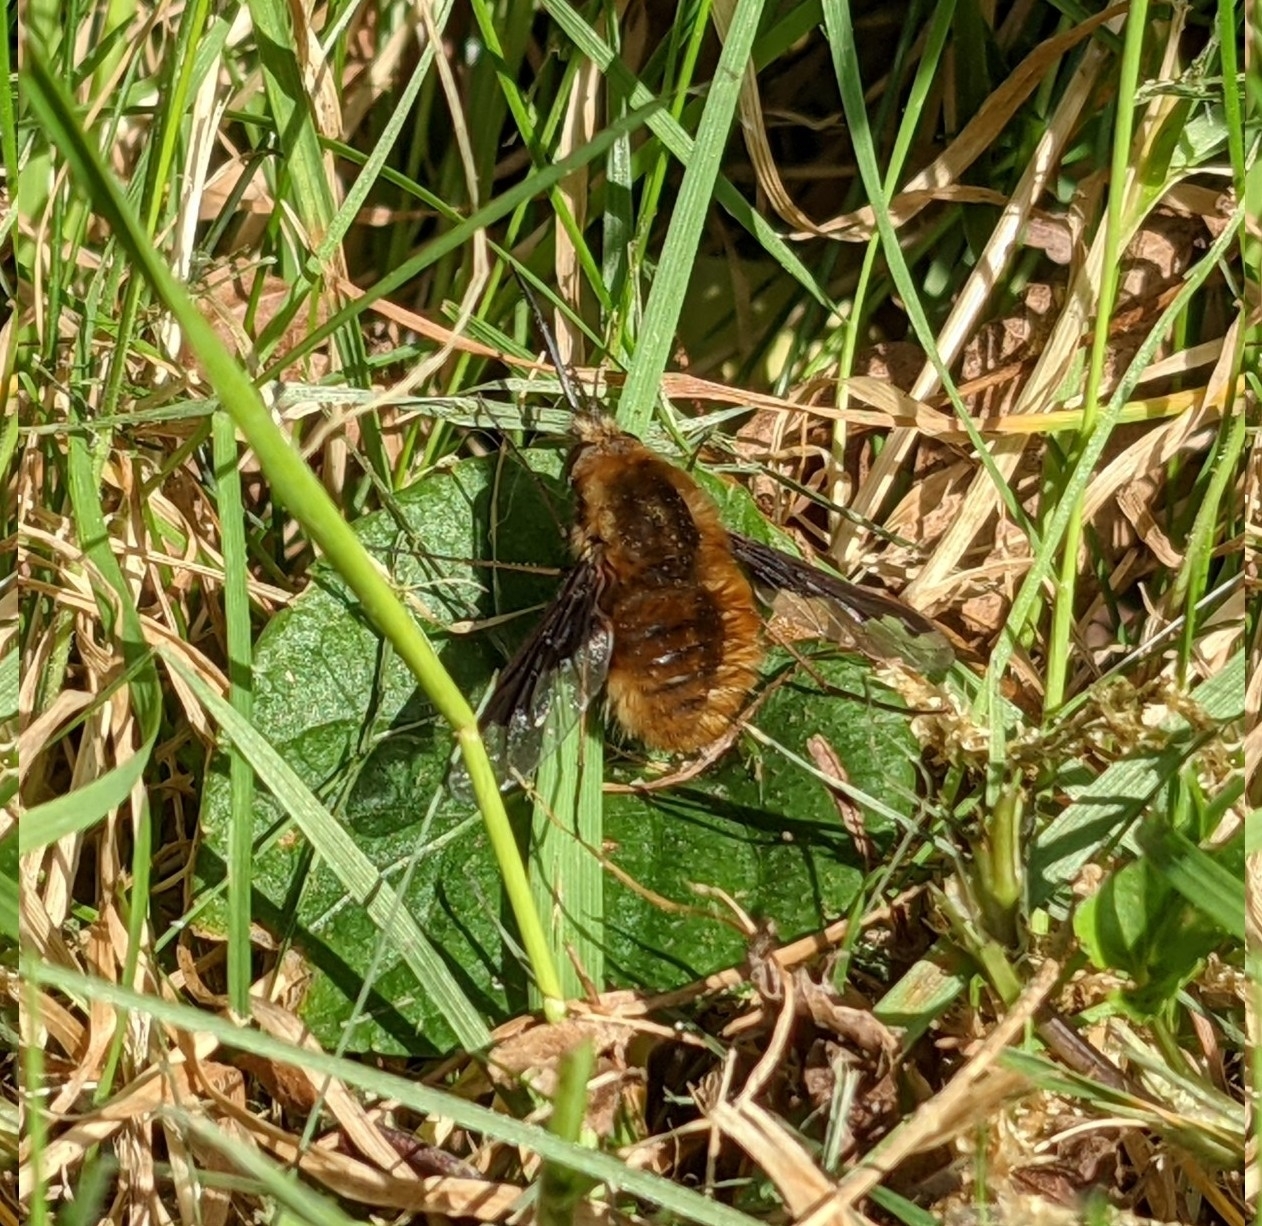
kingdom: Animalia
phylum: Arthropoda
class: Insecta
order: Diptera
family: Bombyliidae
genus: Bombylius
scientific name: Bombylius major
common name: Bee fly
